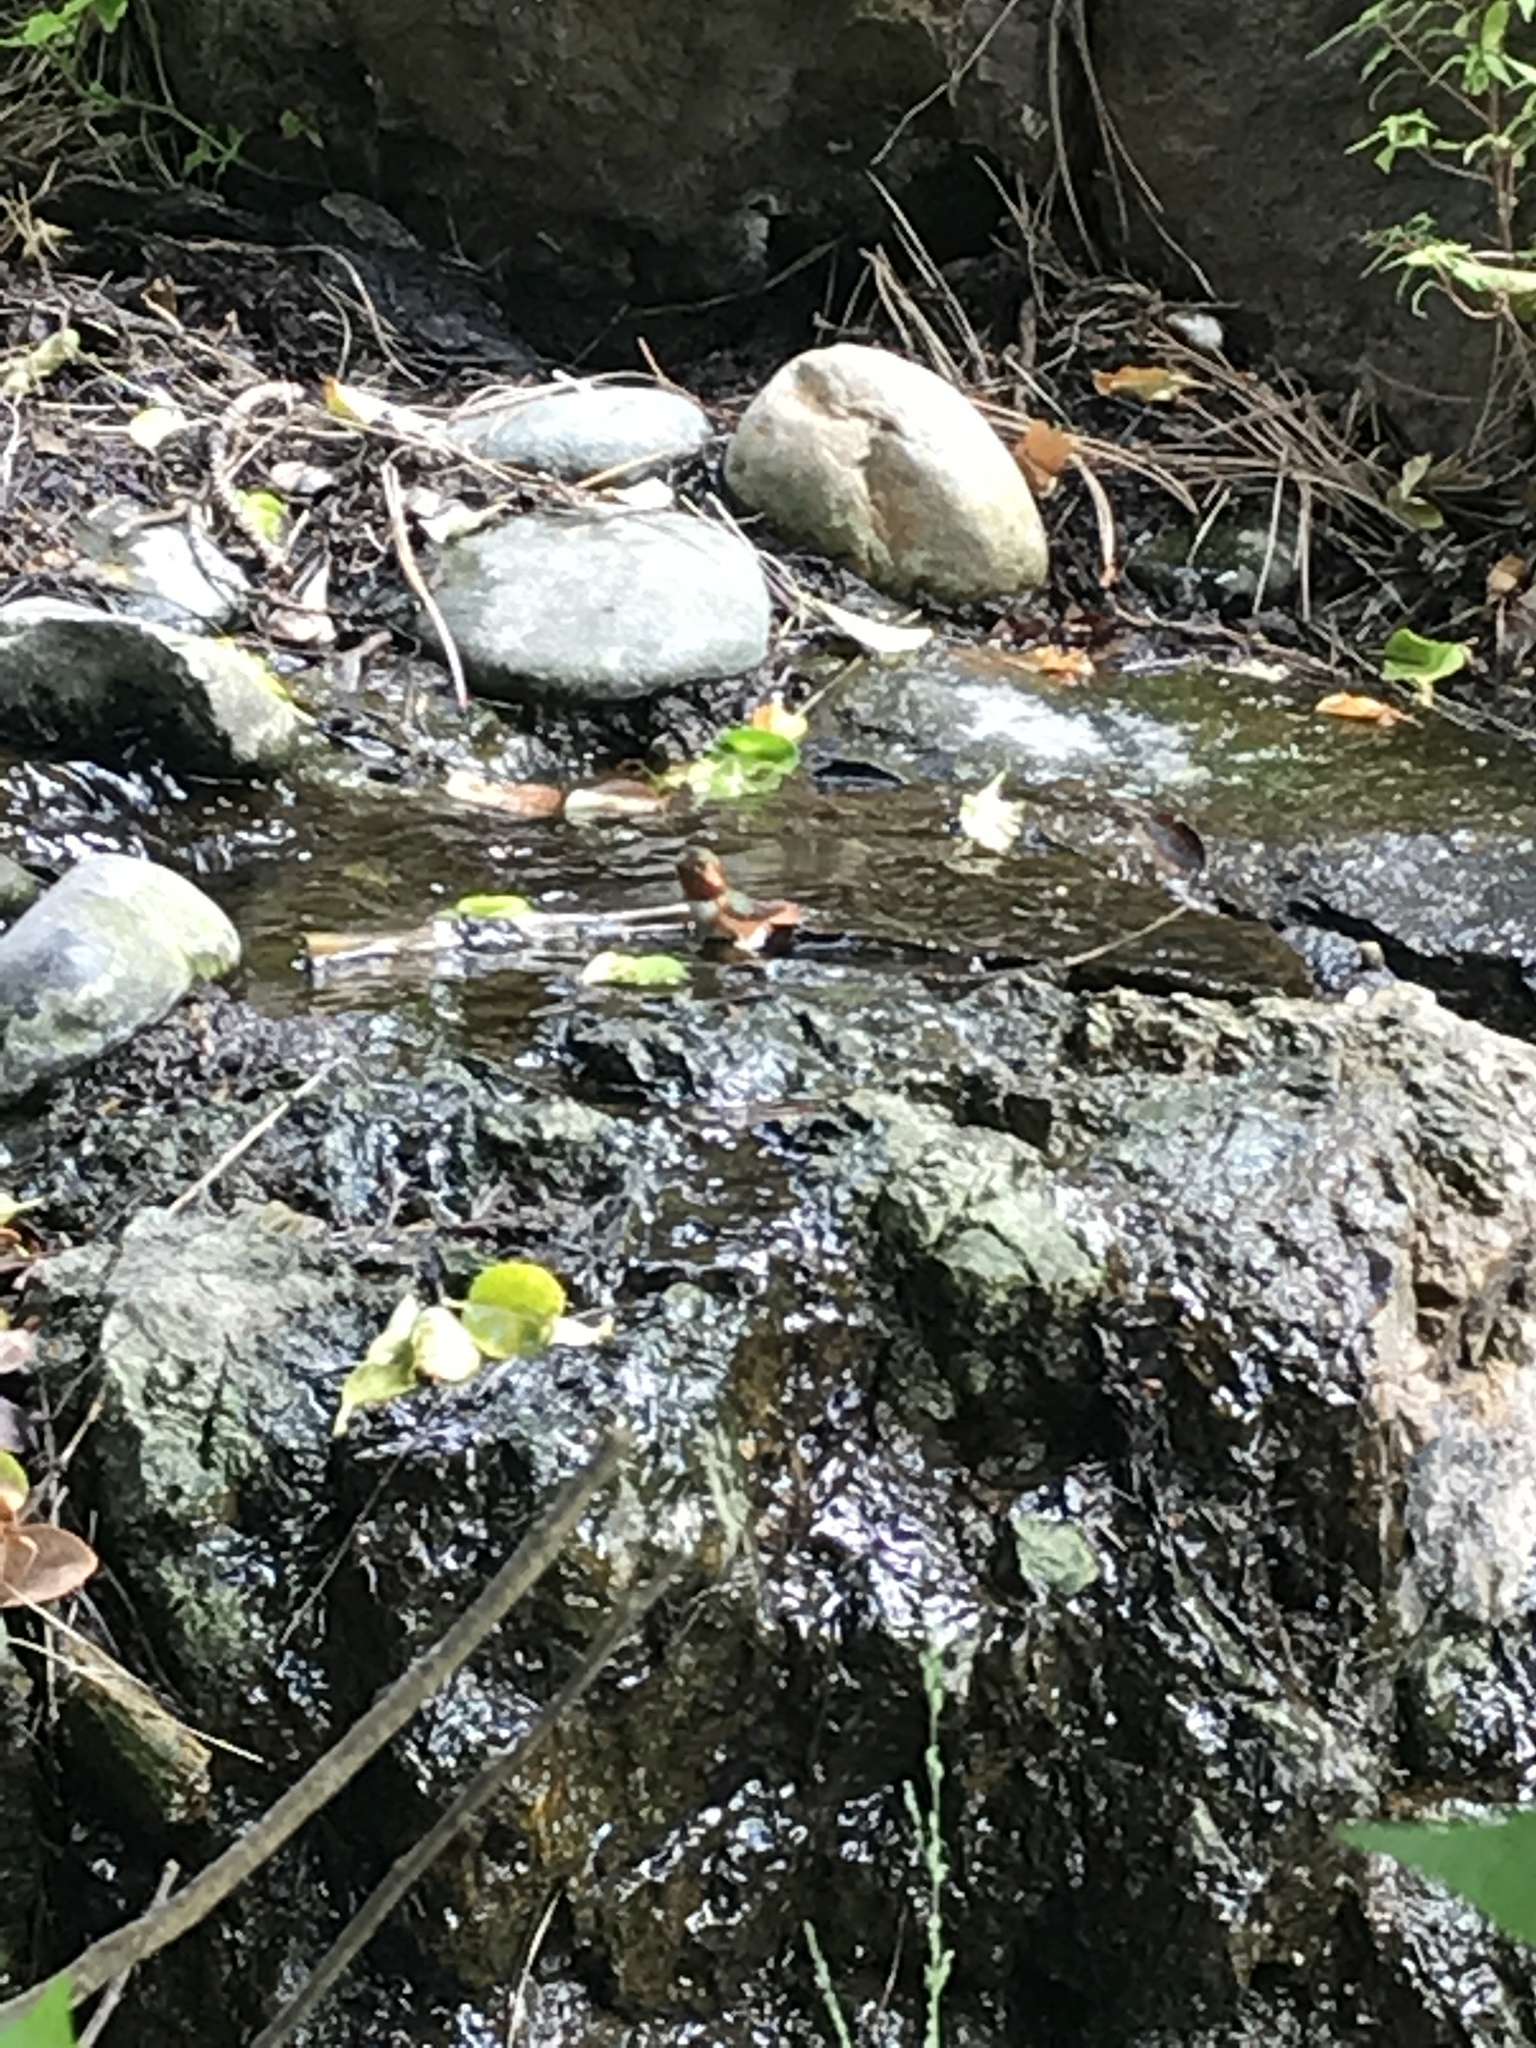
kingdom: Animalia
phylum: Chordata
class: Aves
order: Apodiformes
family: Trochilidae
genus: Selasphorus
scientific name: Selasphorus sasin
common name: Allen's hummingbird
